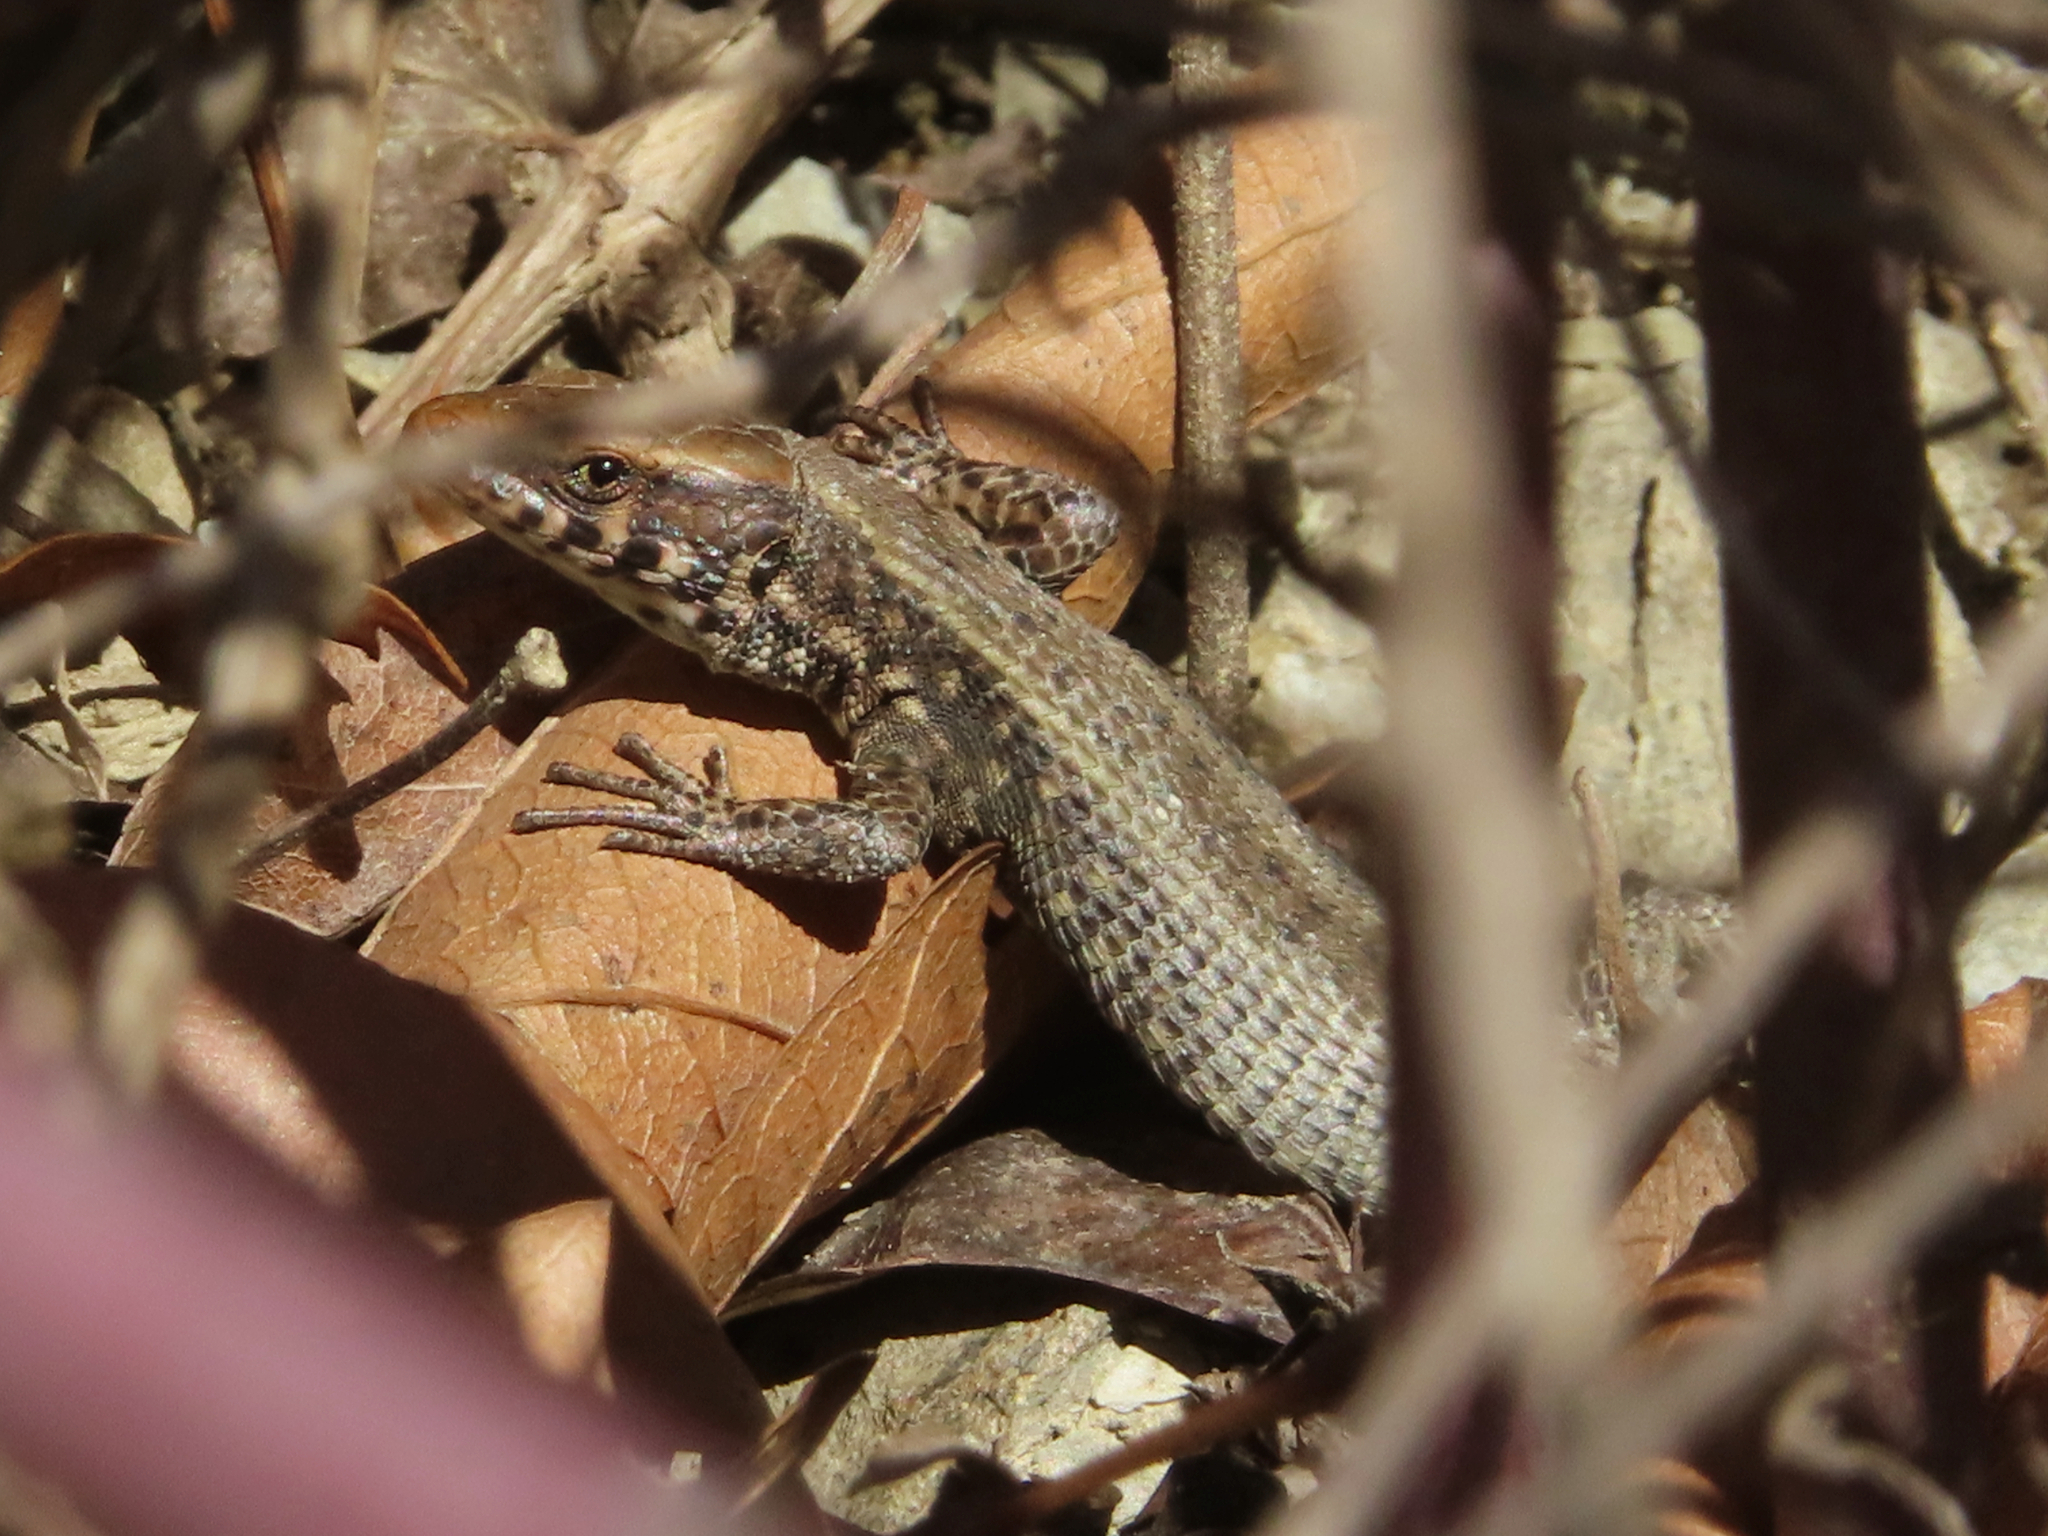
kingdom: Animalia
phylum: Chordata
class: Squamata
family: Lacertidae
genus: Algyroides
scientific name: Algyroides moreoticus
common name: Greek algyroides
